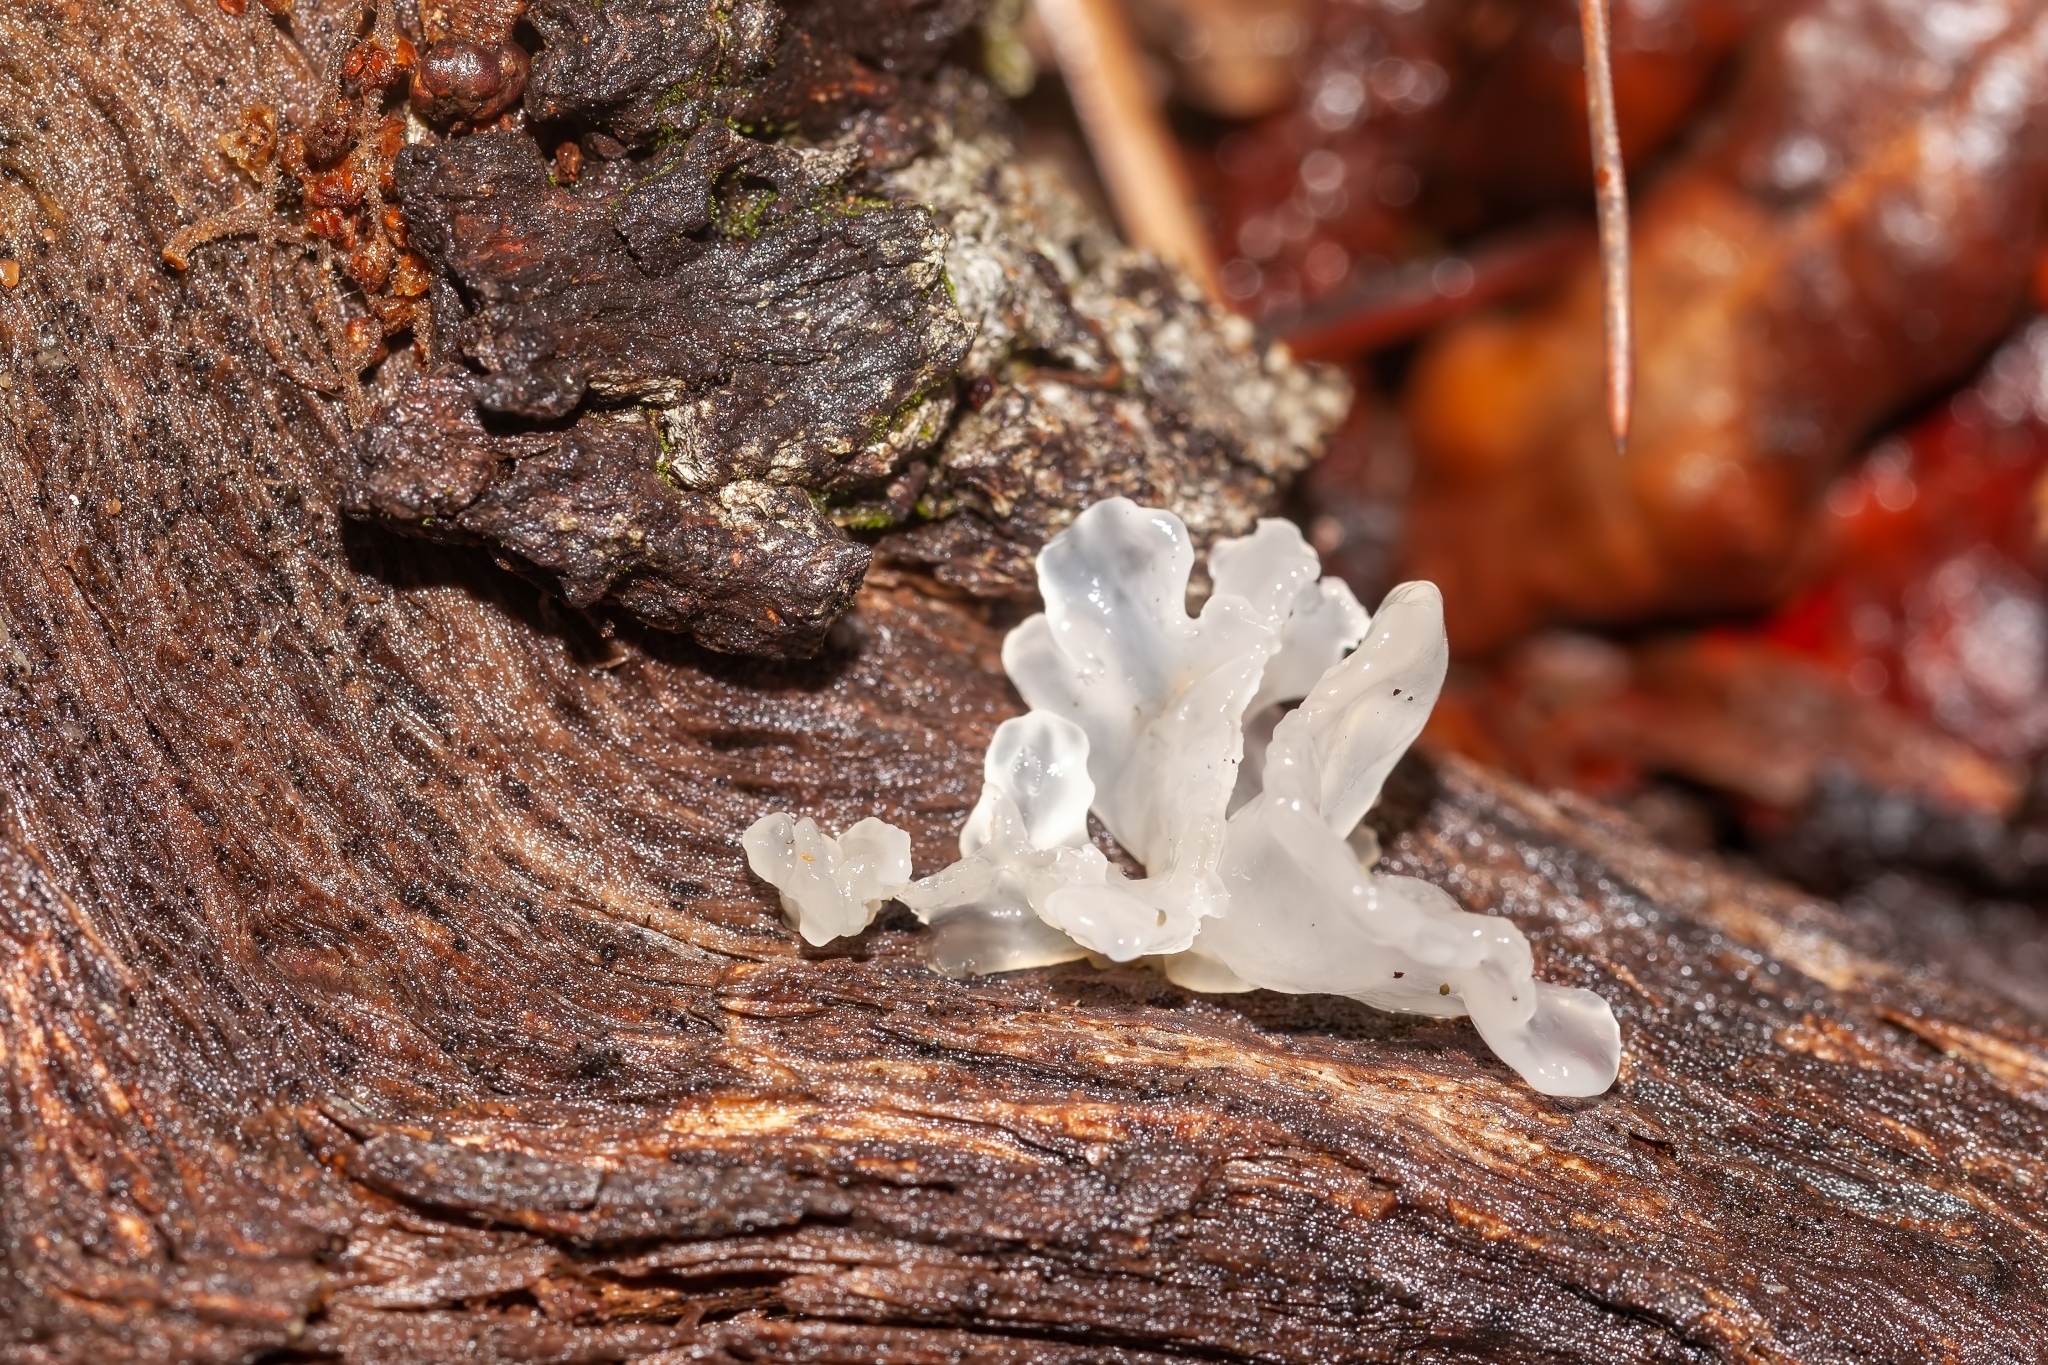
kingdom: Fungi
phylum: Basidiomycota
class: Tremellomycetes
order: Tremellales
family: Tremellaceae
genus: Tremella
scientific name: Tremella fuciformis
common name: Snow fungus
